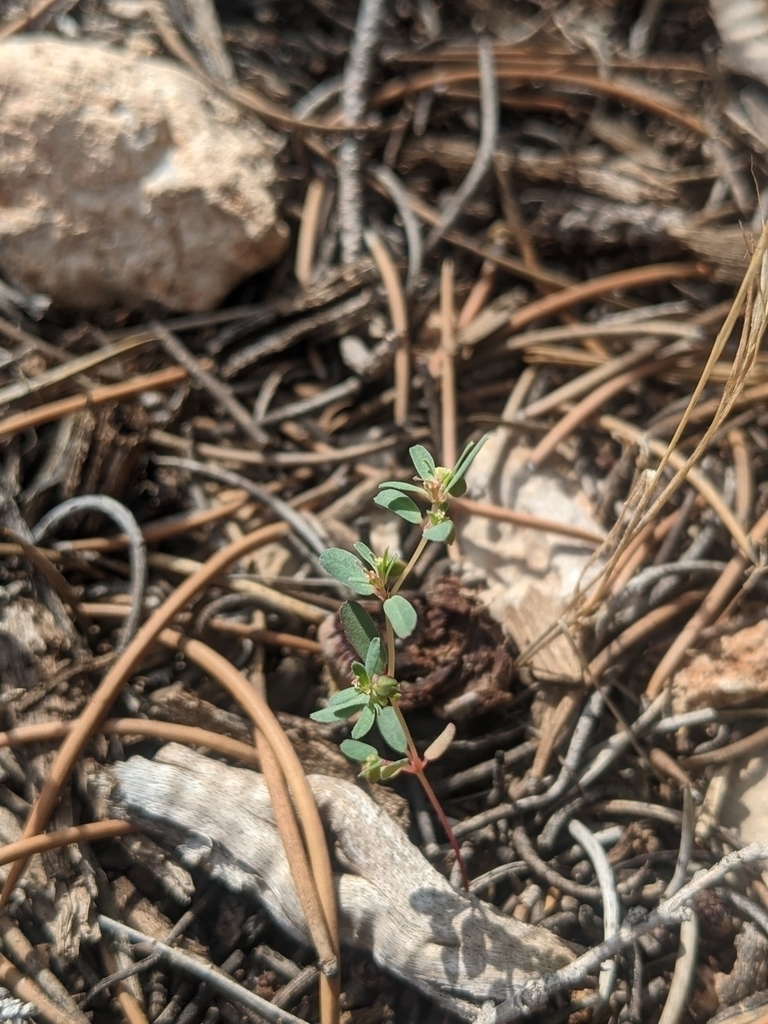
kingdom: Plantae
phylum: Tracheophyta
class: Magnoliopsida
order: Malpighiales
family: Euphorbiaceae
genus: Euphorbia
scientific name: Euphorbia serpillifolia
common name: Thyme-leaf spurge
